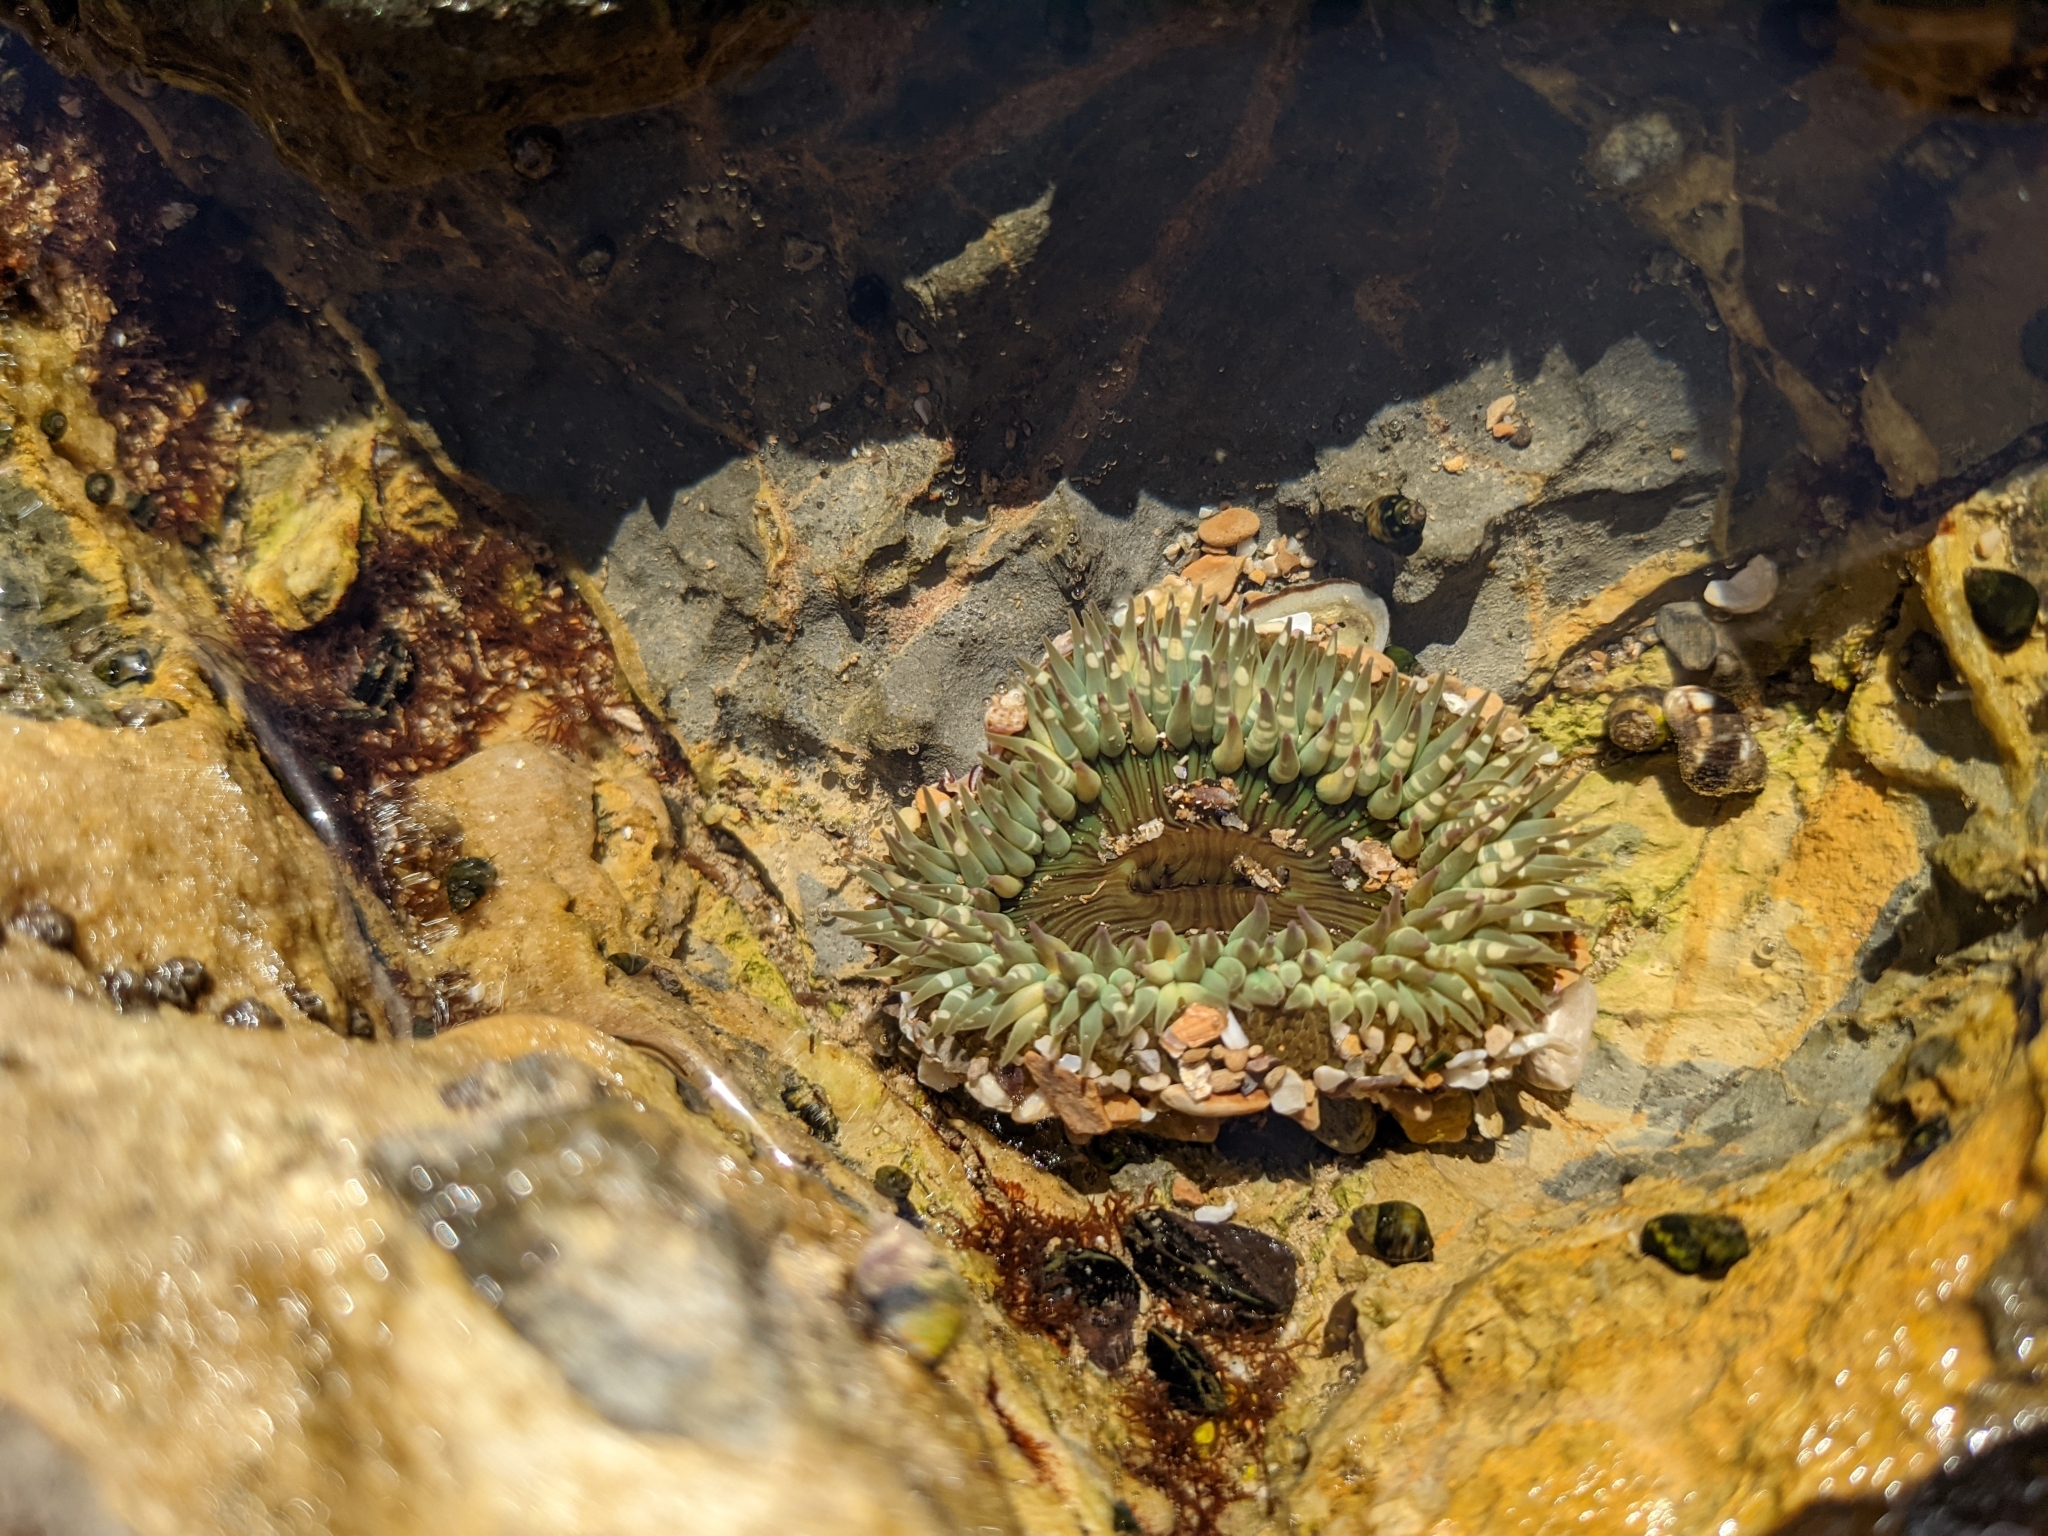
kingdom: Animalia
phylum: Cnidaria
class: Anthozoa
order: Actiniaria
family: Actiniidae
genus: Anthopleura
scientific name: Anthopleura sola
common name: Sun anemone
